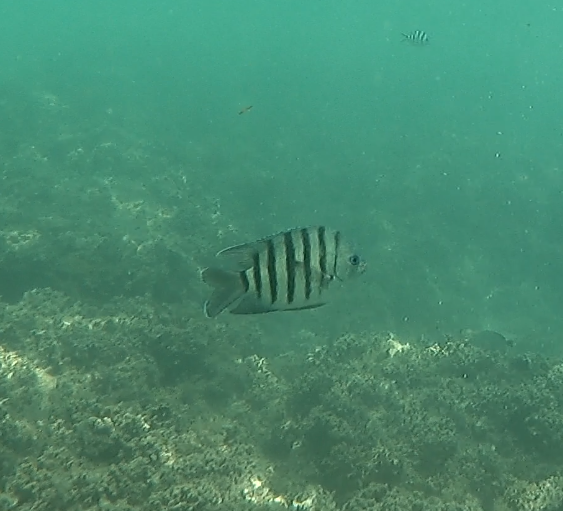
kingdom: Animalia
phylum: Chordata
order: Perciformes
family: Pomacentridae
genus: Abudefduf
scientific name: Abudefduf bengalensis
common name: Bengal sergeant
